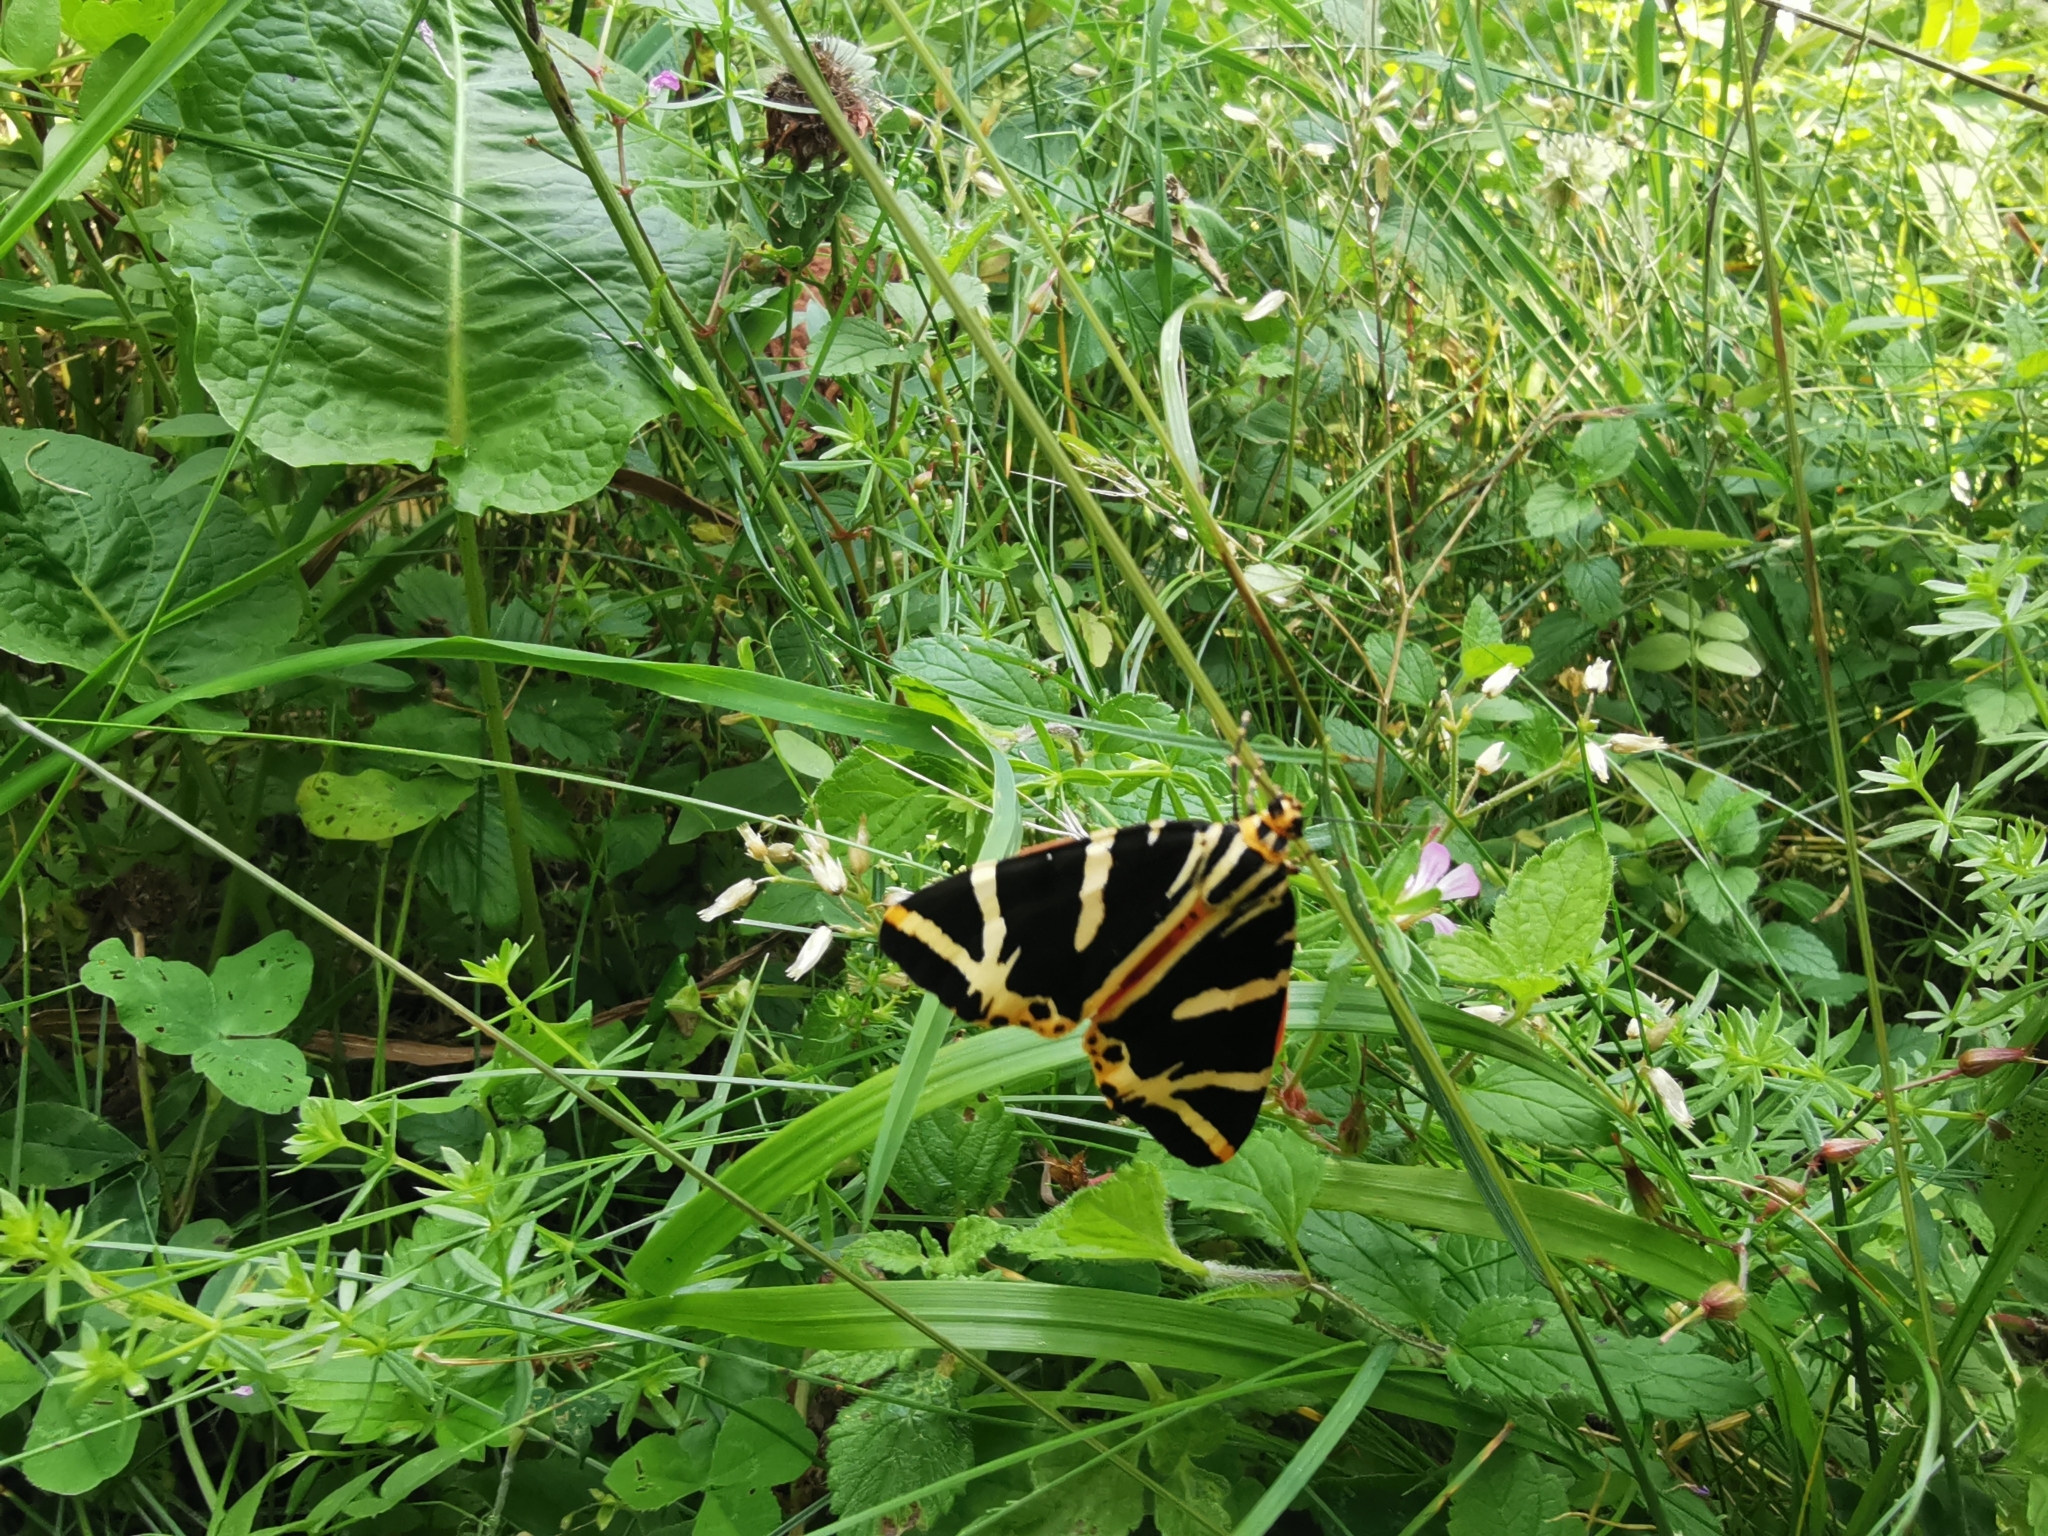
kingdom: Animalia
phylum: Arthropoda
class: Insecta
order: Lepidoptera
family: Erebidae
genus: Euplagia
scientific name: Euplagia quadripunctaria
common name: Jersey tiger
